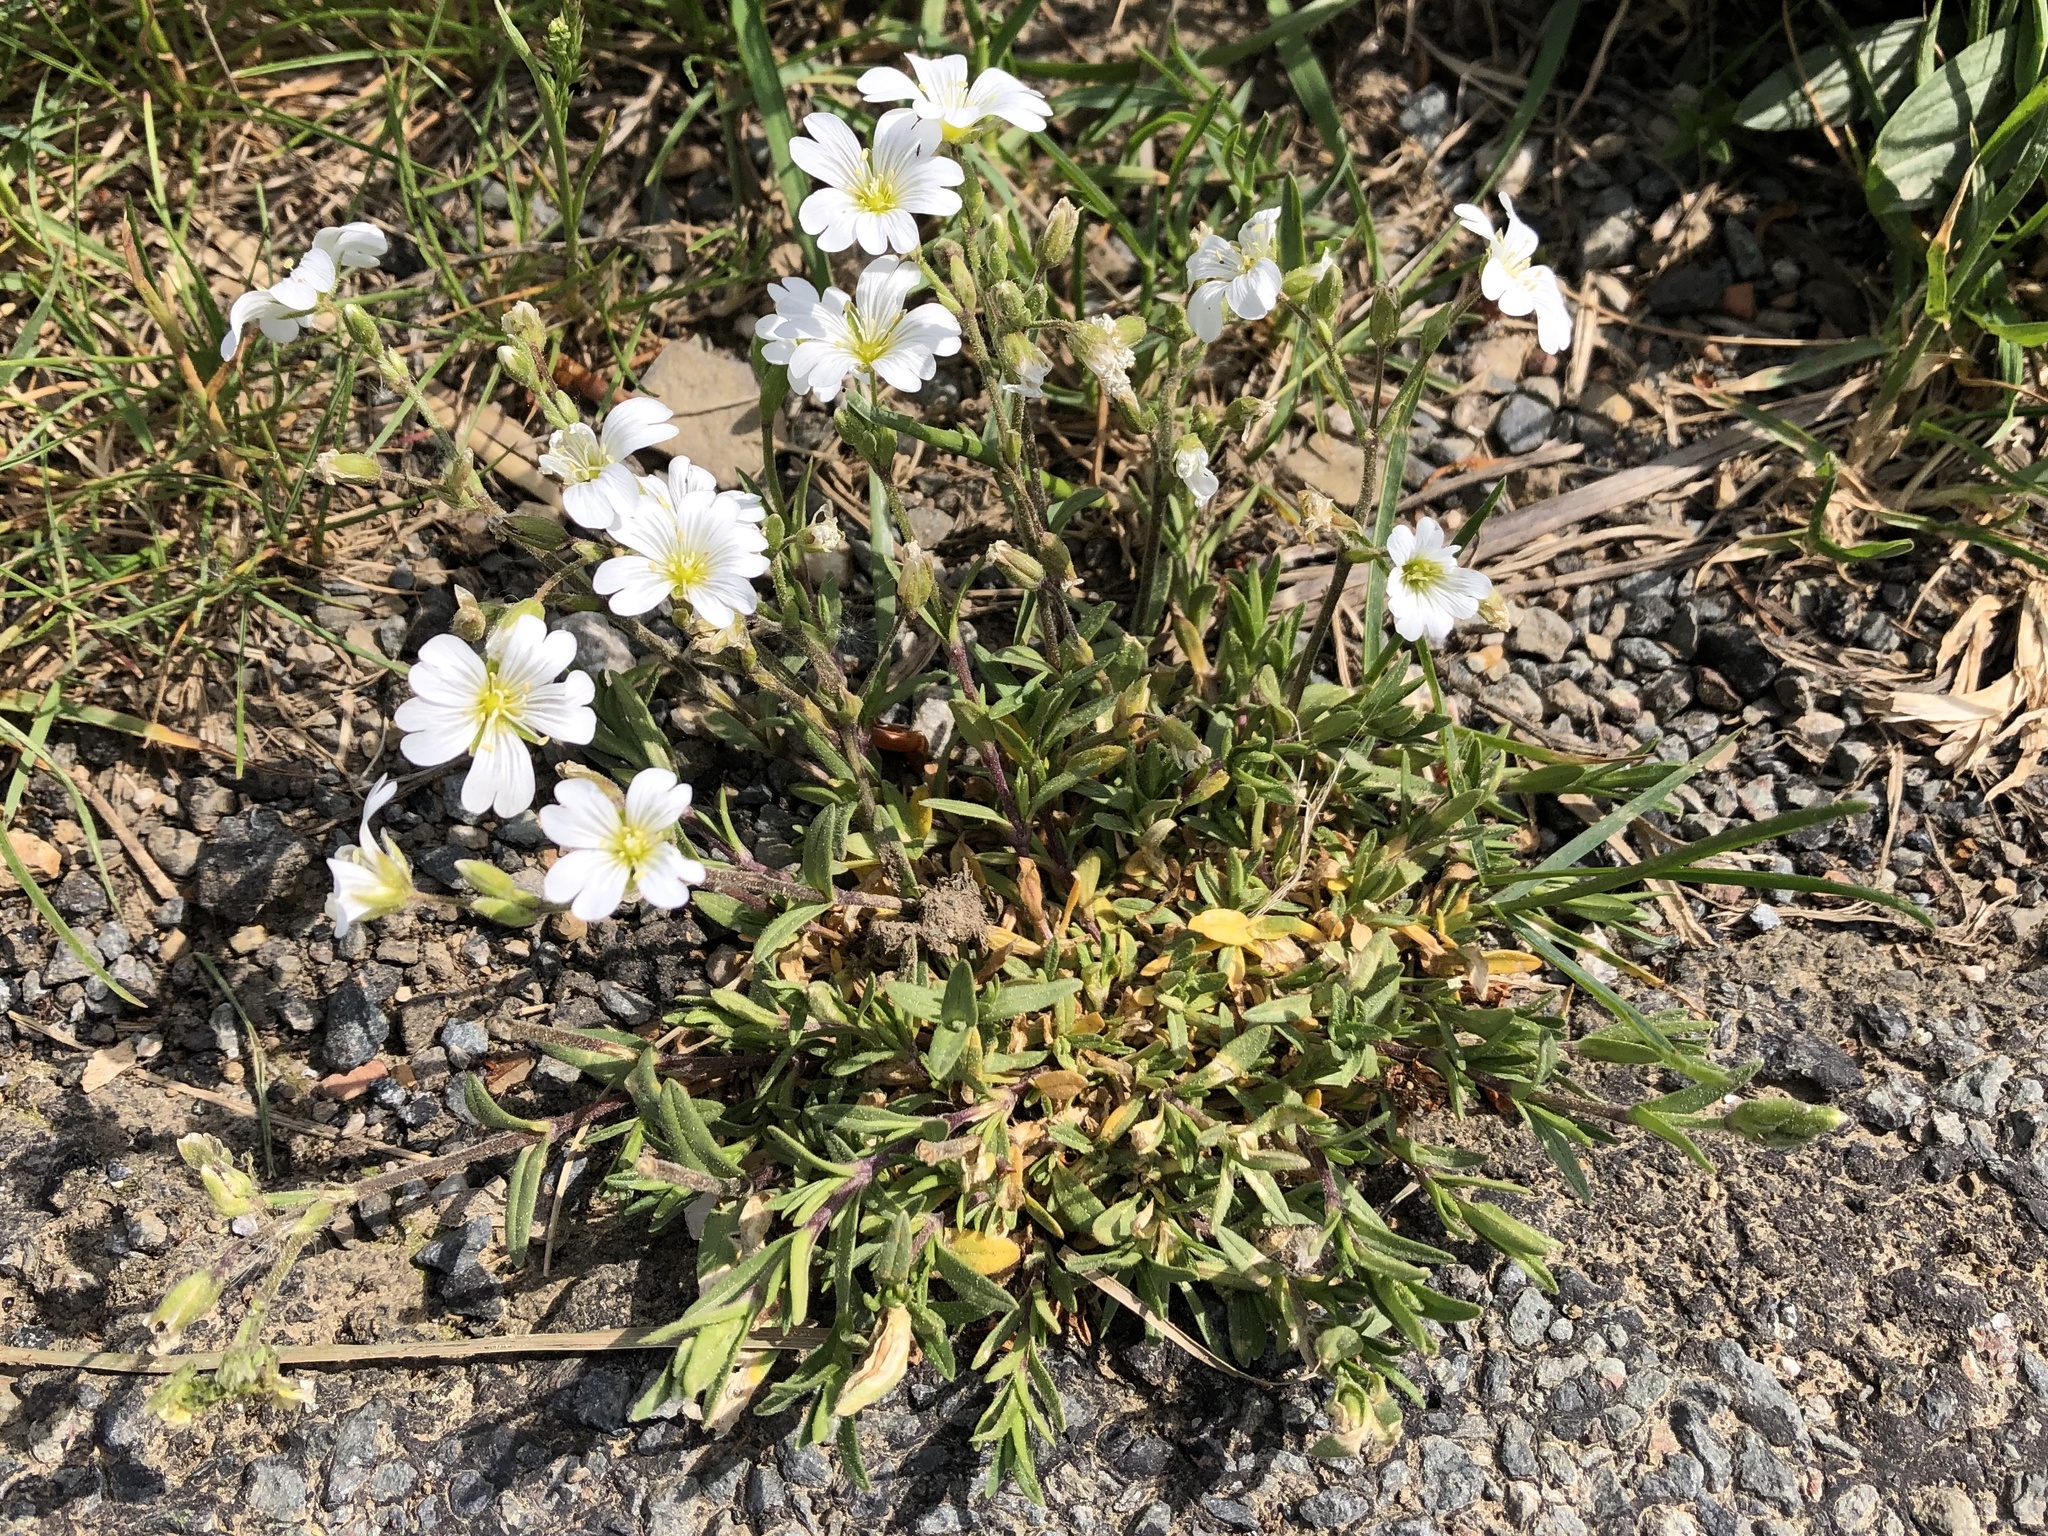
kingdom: Plantae
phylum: Tracheophyta
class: Magnoliopsida
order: Caryophyllales
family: Caryophyllaceae
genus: Cerastium
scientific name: Cerastium arvense
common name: Field mouse-ear
